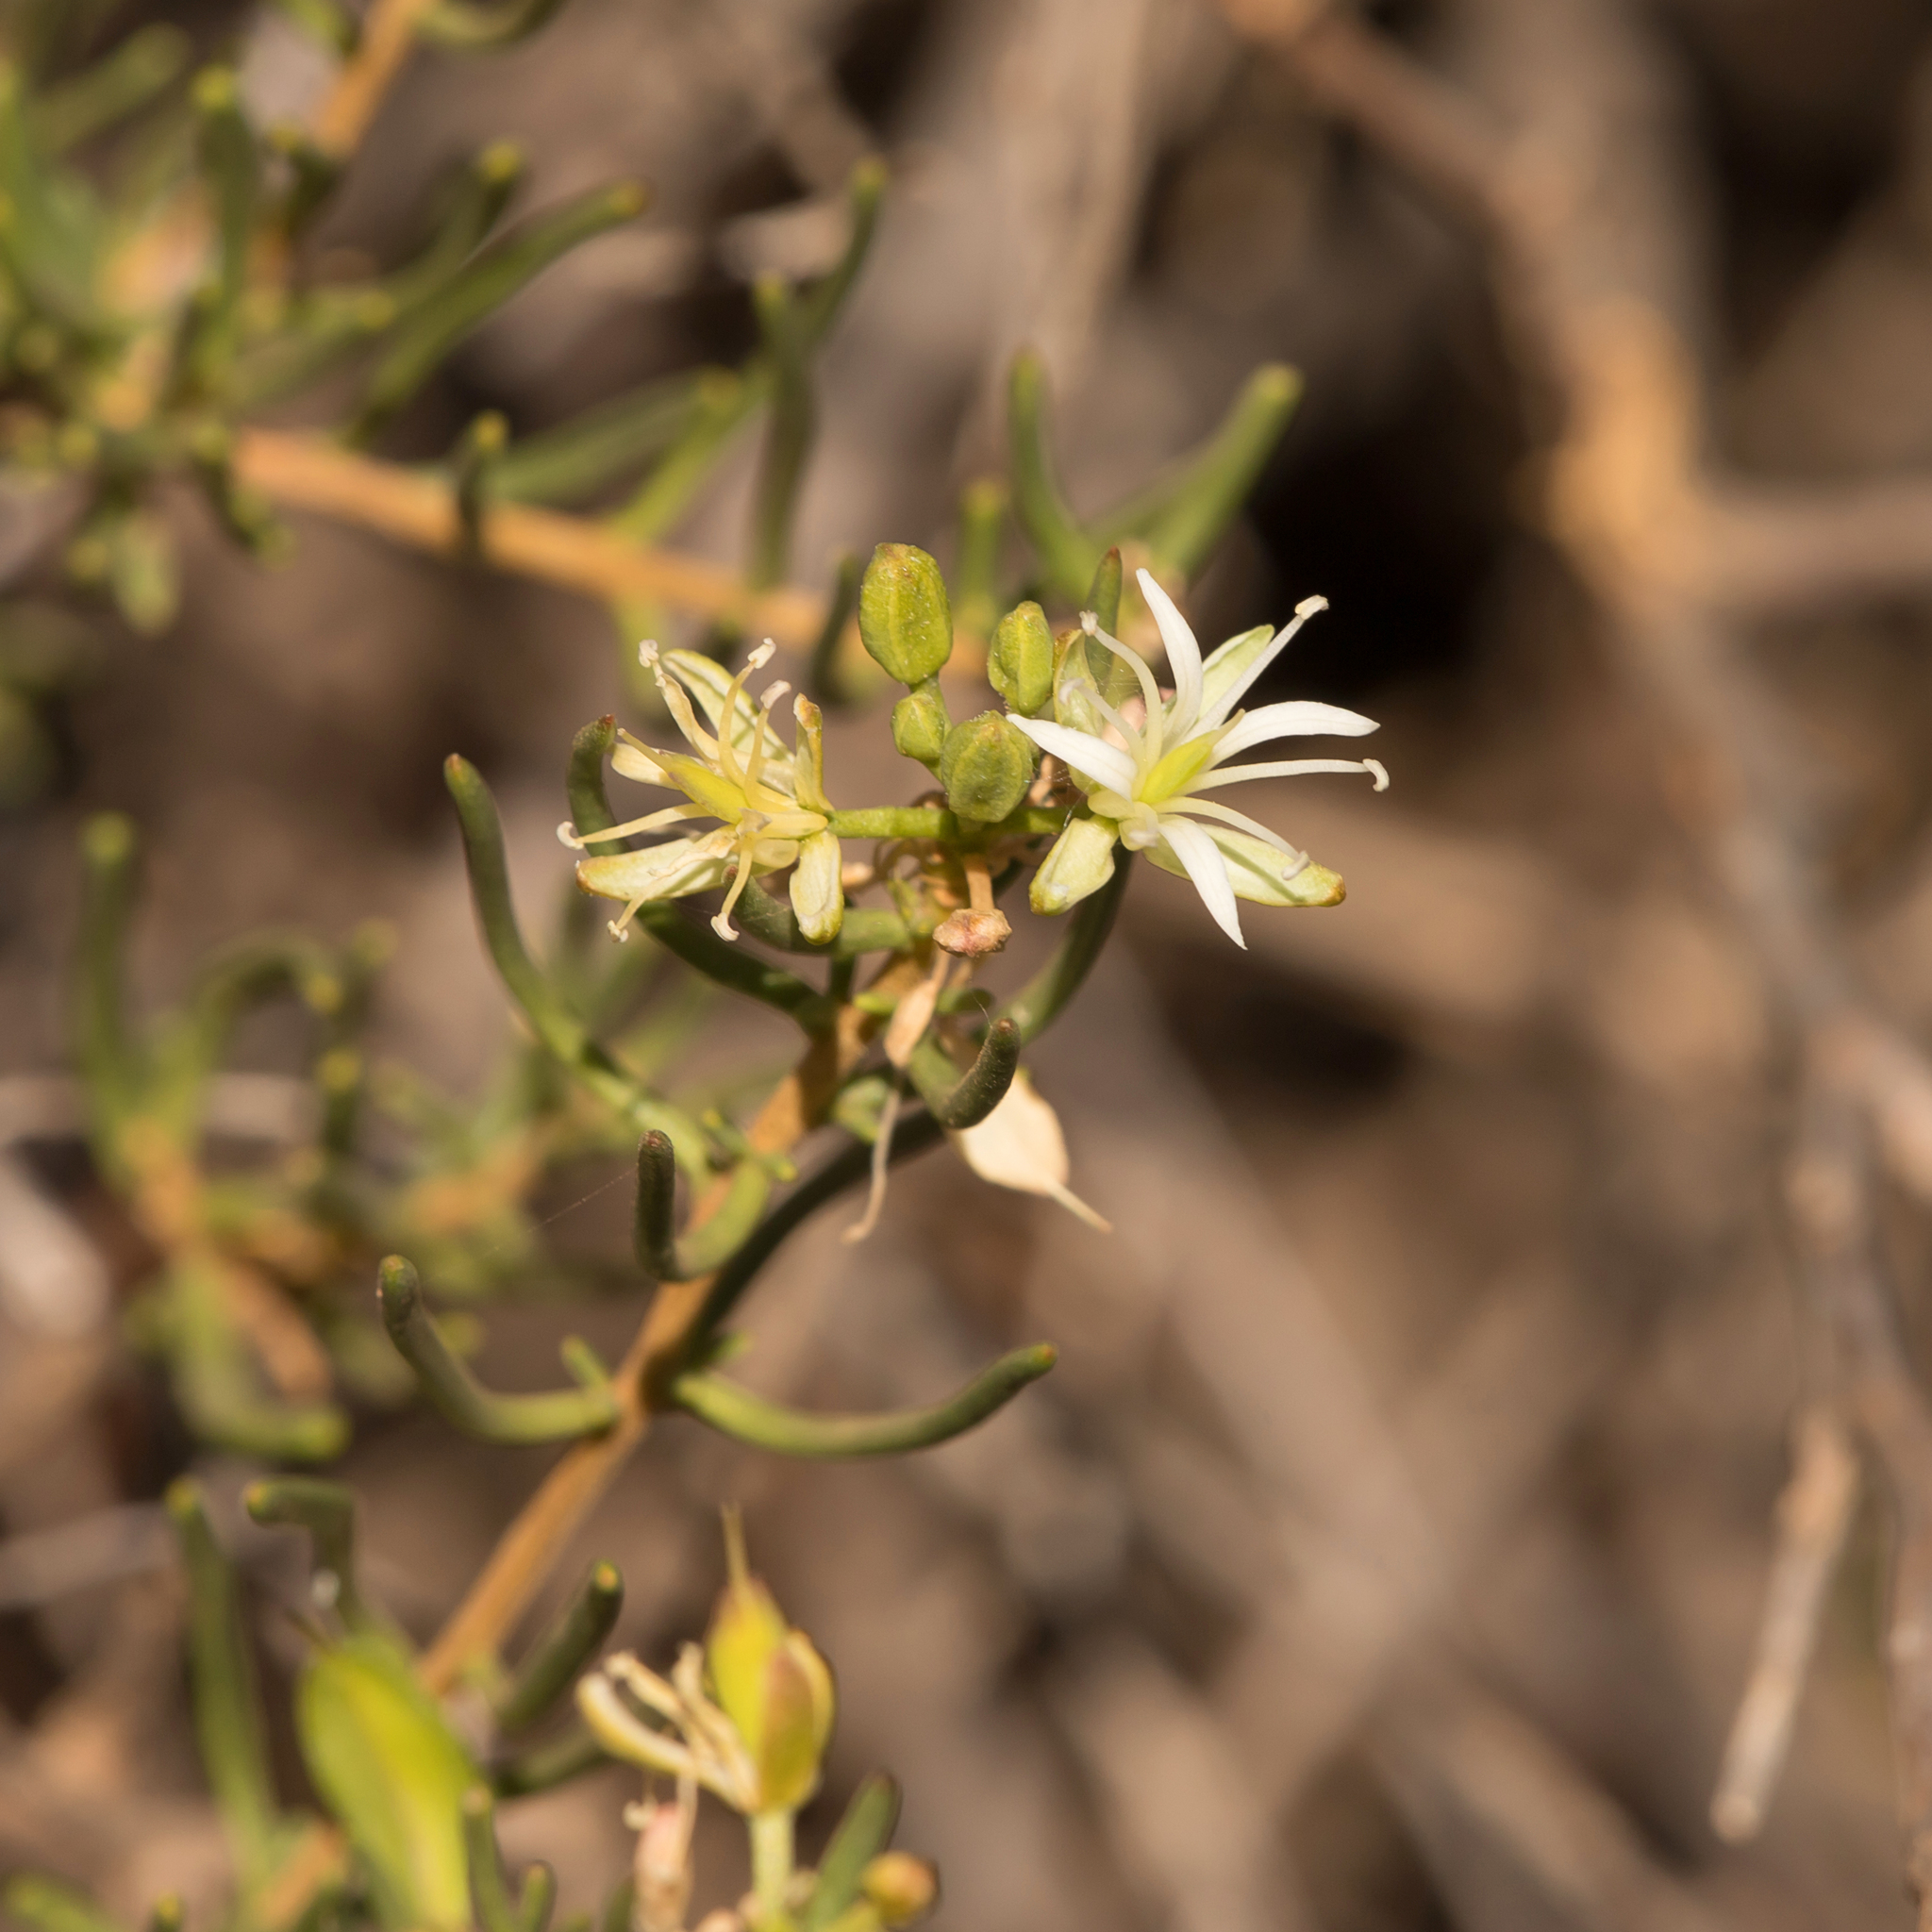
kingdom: Plantae
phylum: Tracheophyta
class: Magnoliopsida
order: Brassicales
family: Brassicaceae
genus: Lepidium
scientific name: Lepidium leptopetalum
